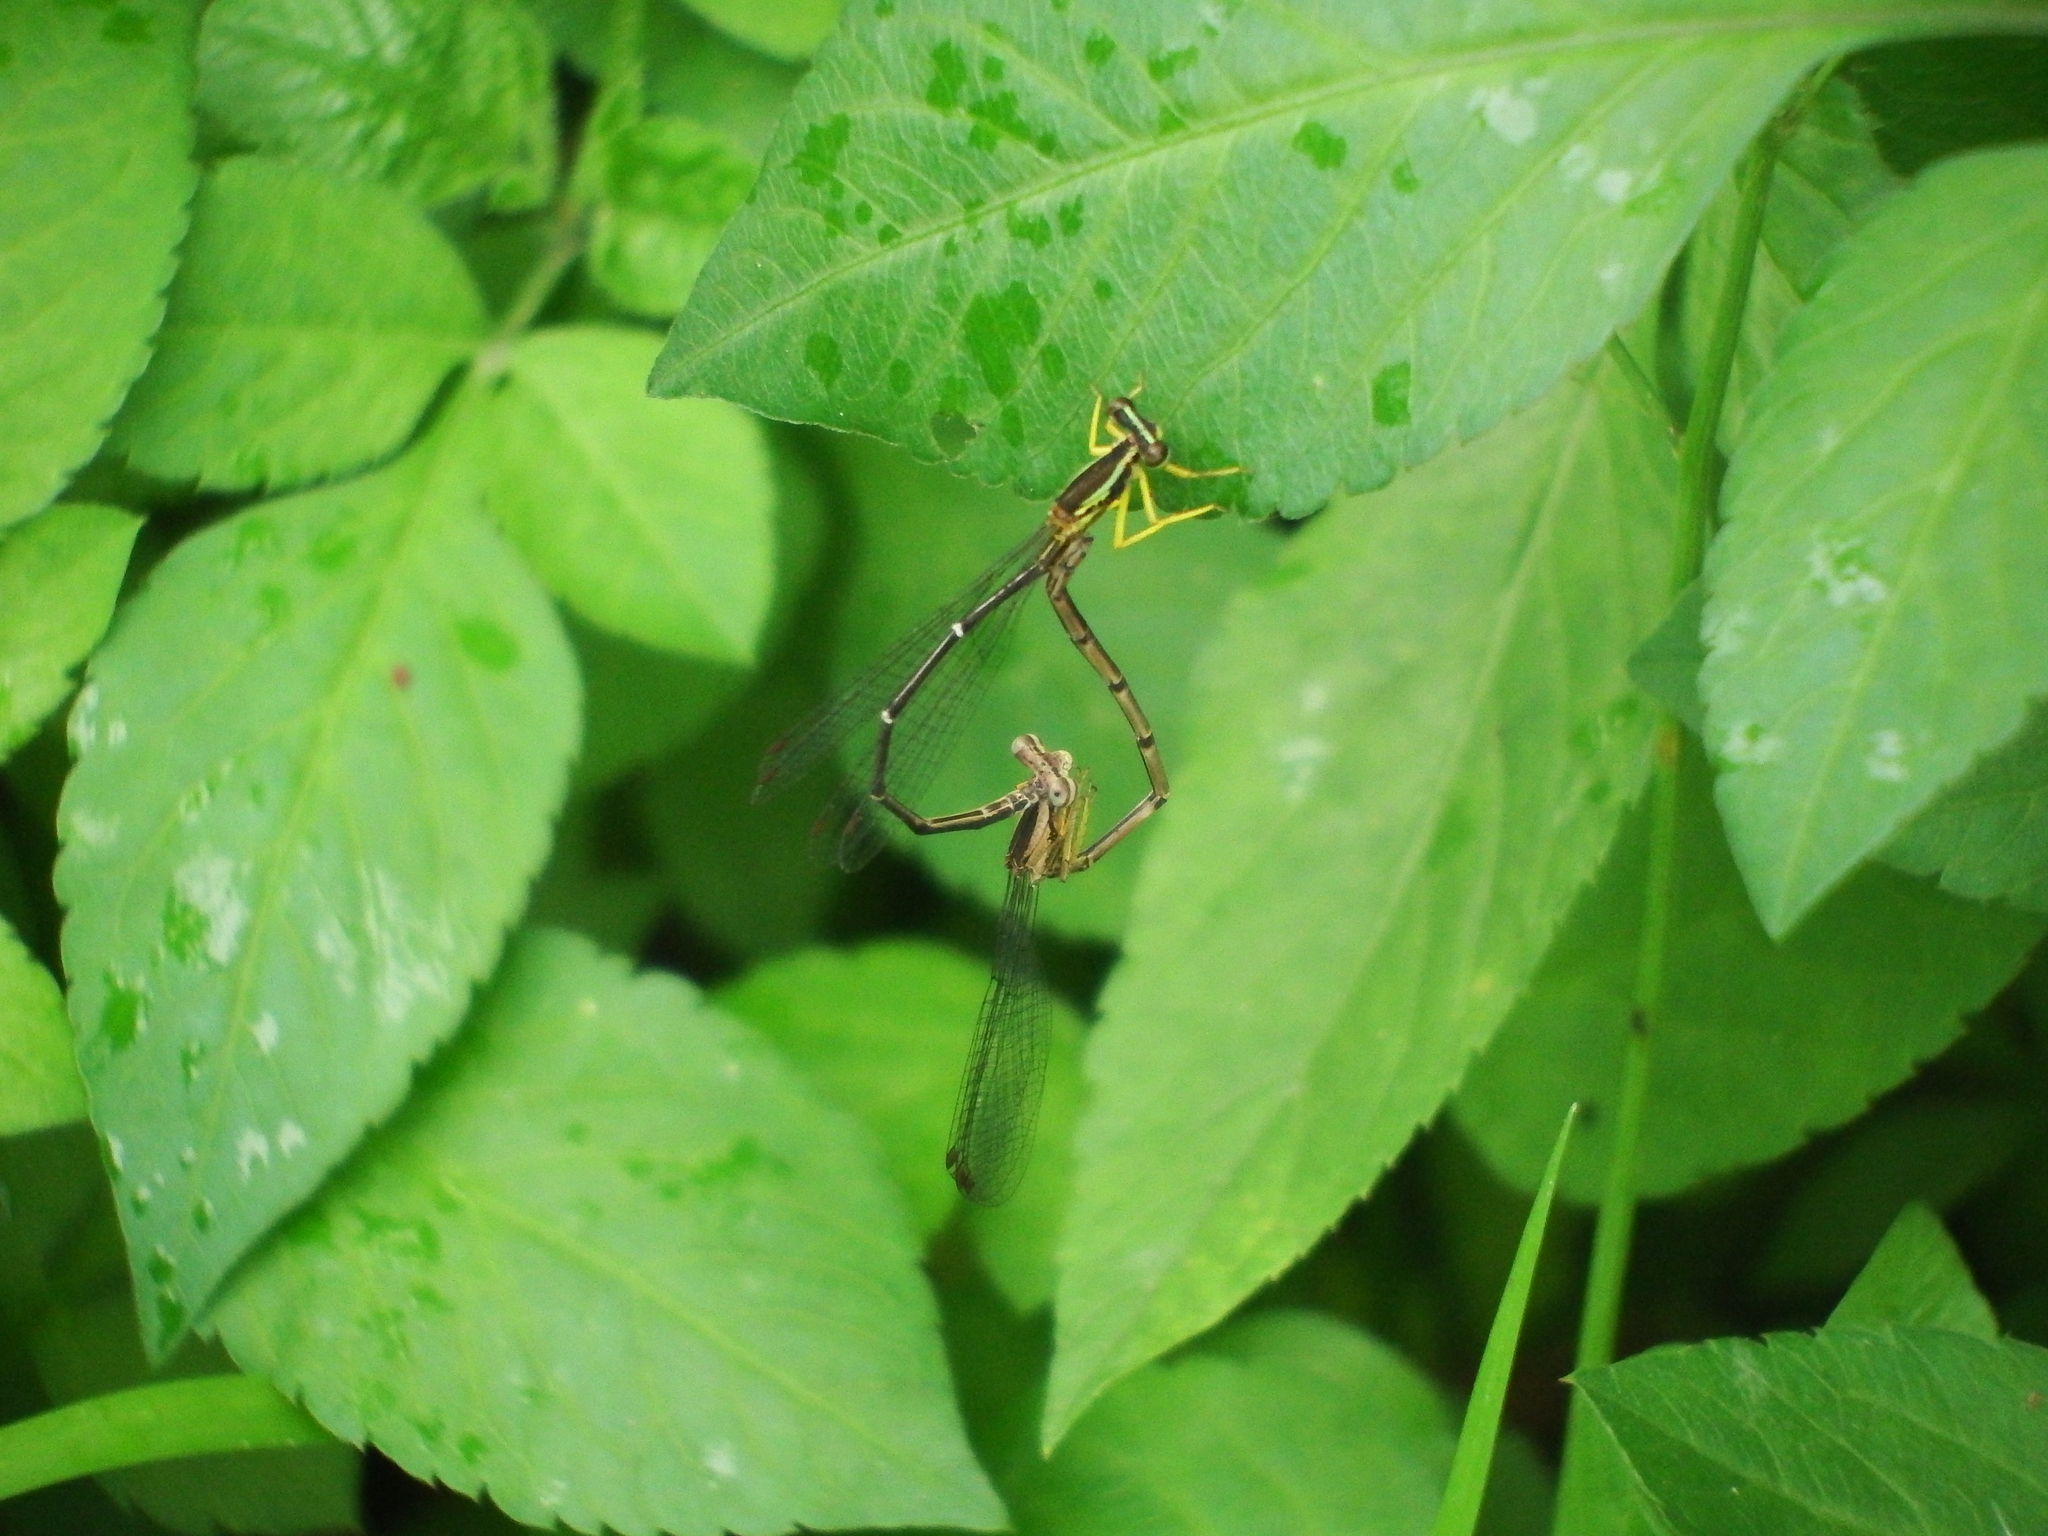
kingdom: Animalia
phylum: Arthropoda
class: Insecta
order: Odonata
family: Platycnemididae
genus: Copera
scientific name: Copera marginipes
